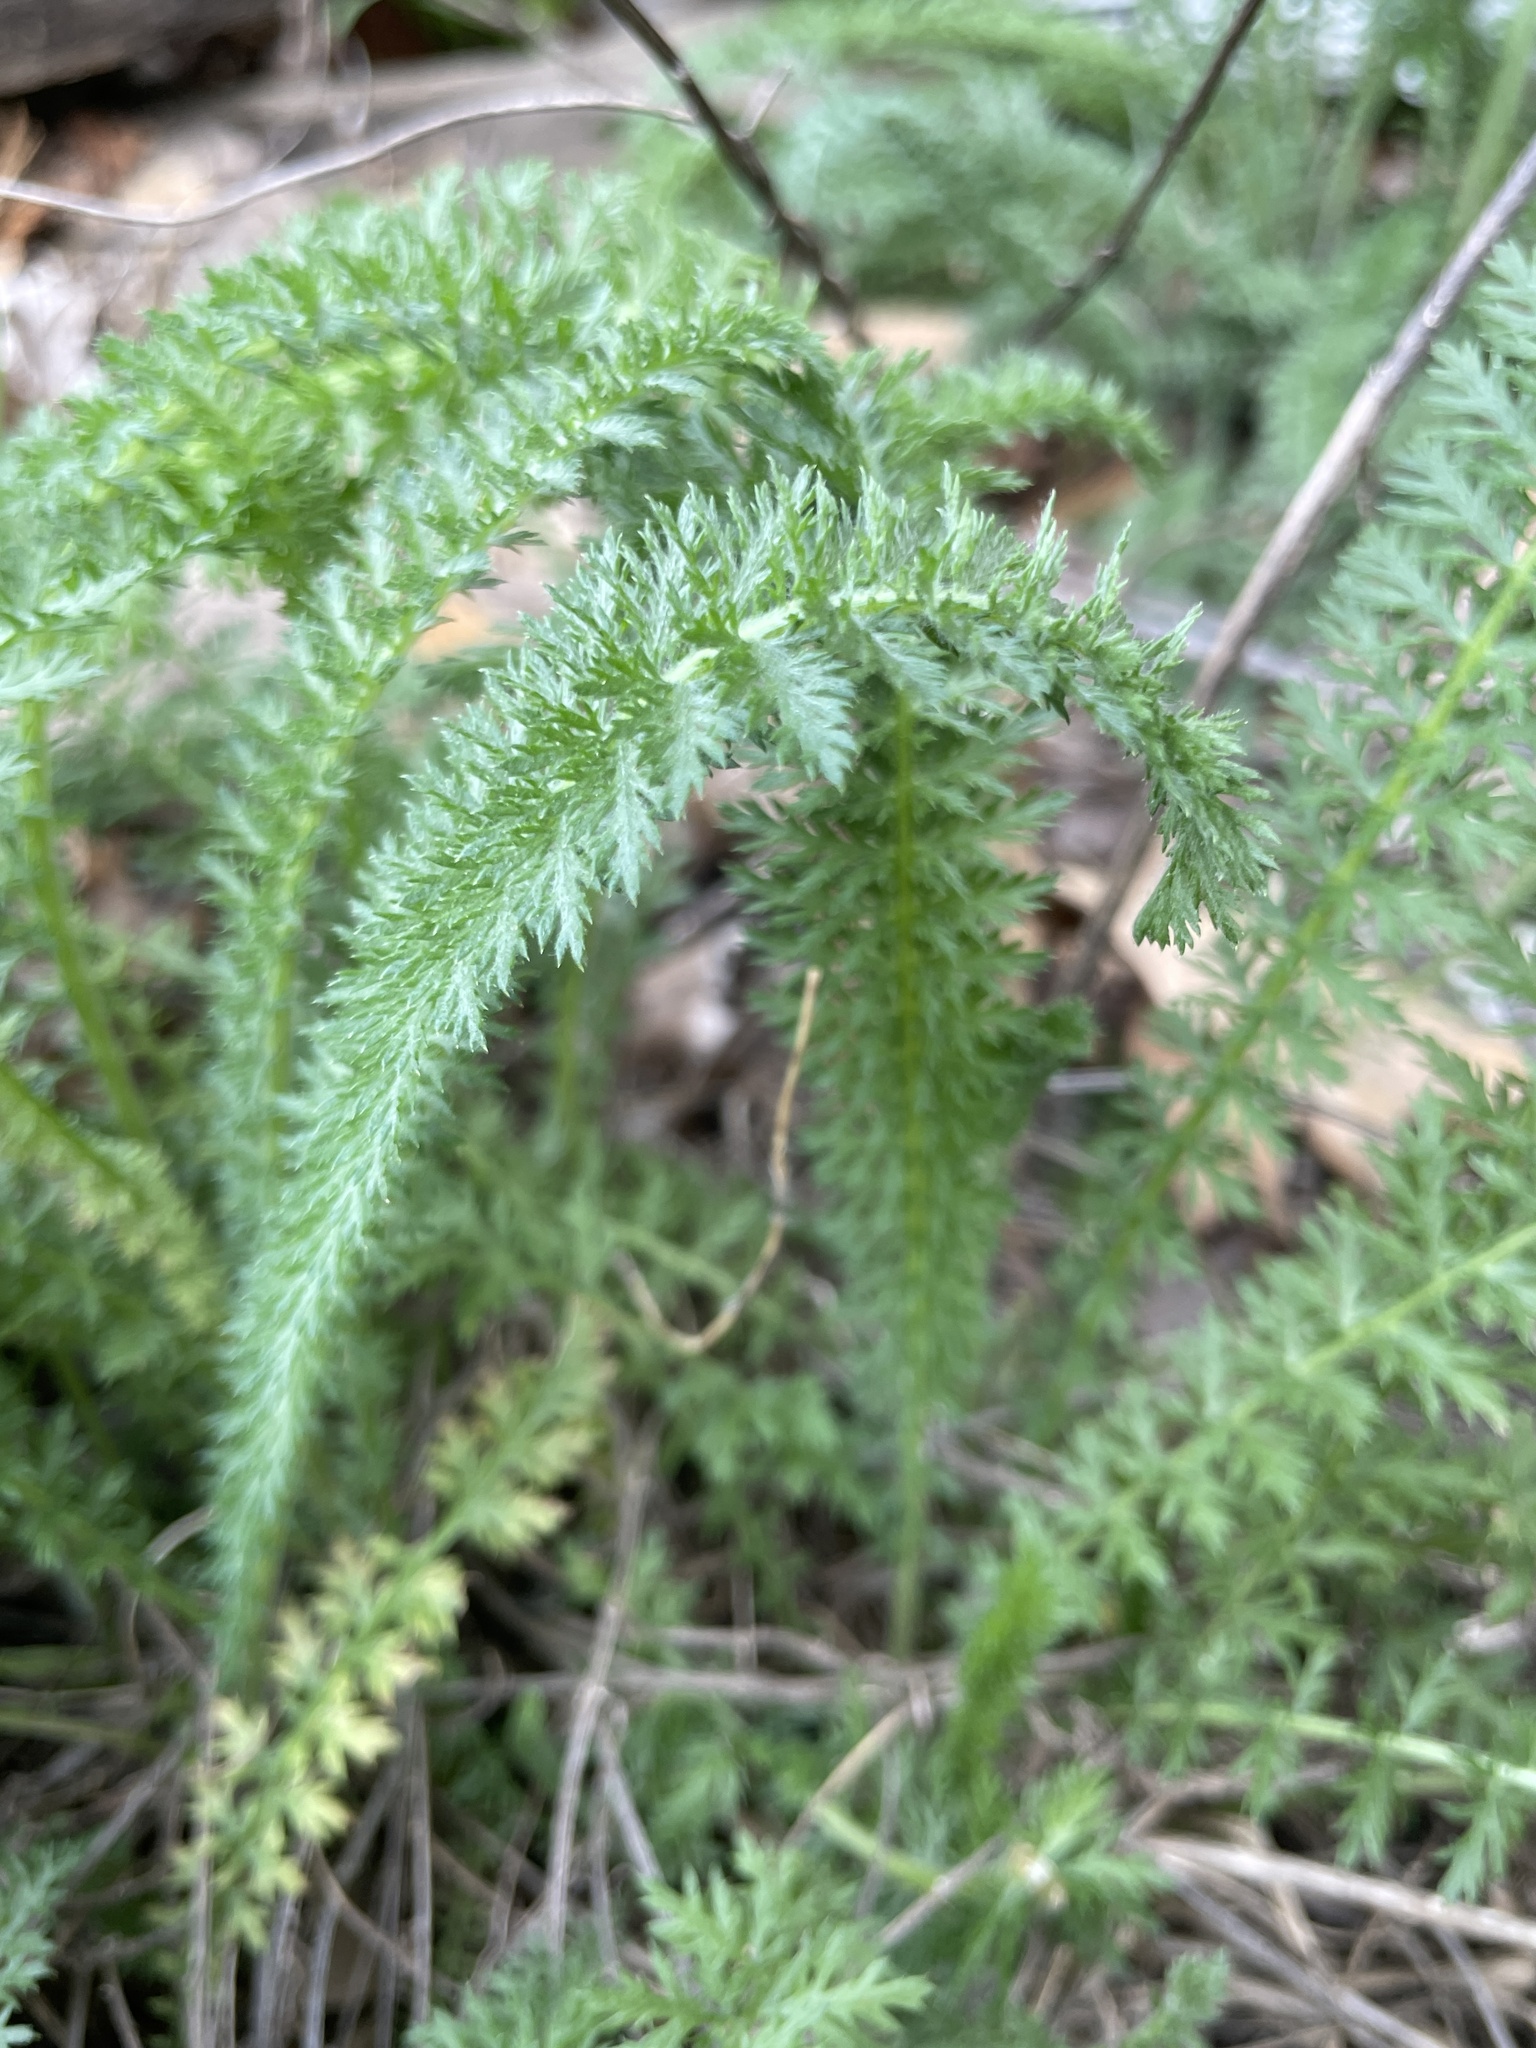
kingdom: Plantae
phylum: Tracheophyta
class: Magnoliopsida
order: Asterales
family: Asteraceae
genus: Achillea
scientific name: Achillea millefolium
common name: Yarrow
